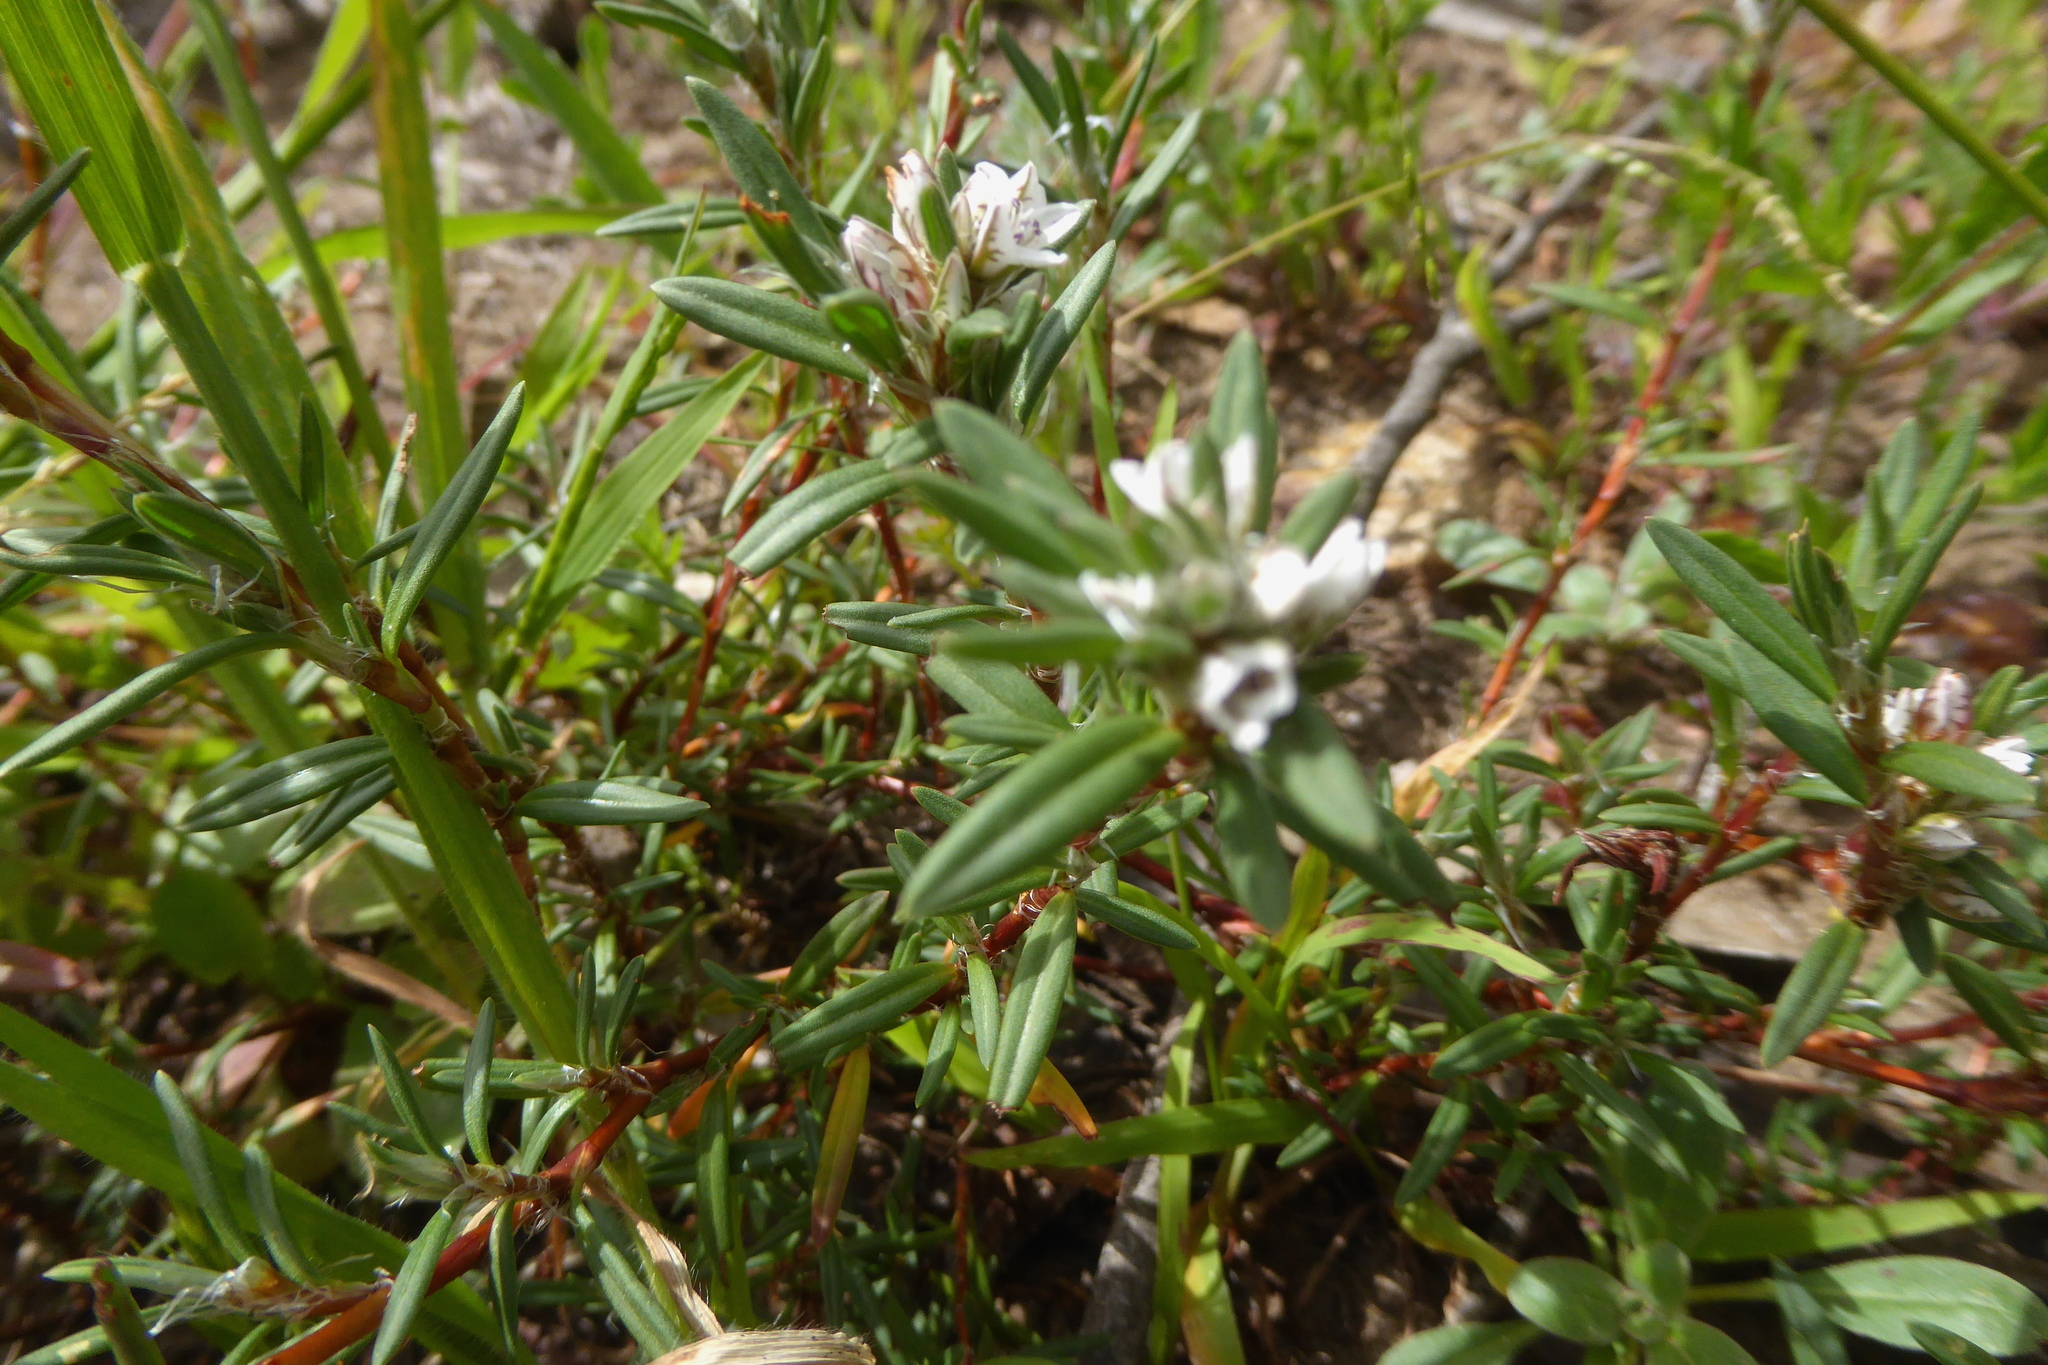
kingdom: Plantae
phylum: Tracheophyta
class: Magnoliopsida
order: Caryophyllales
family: Polygonaceae
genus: Polygonum
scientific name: Polygonum paronychia
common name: Dune knotweed
